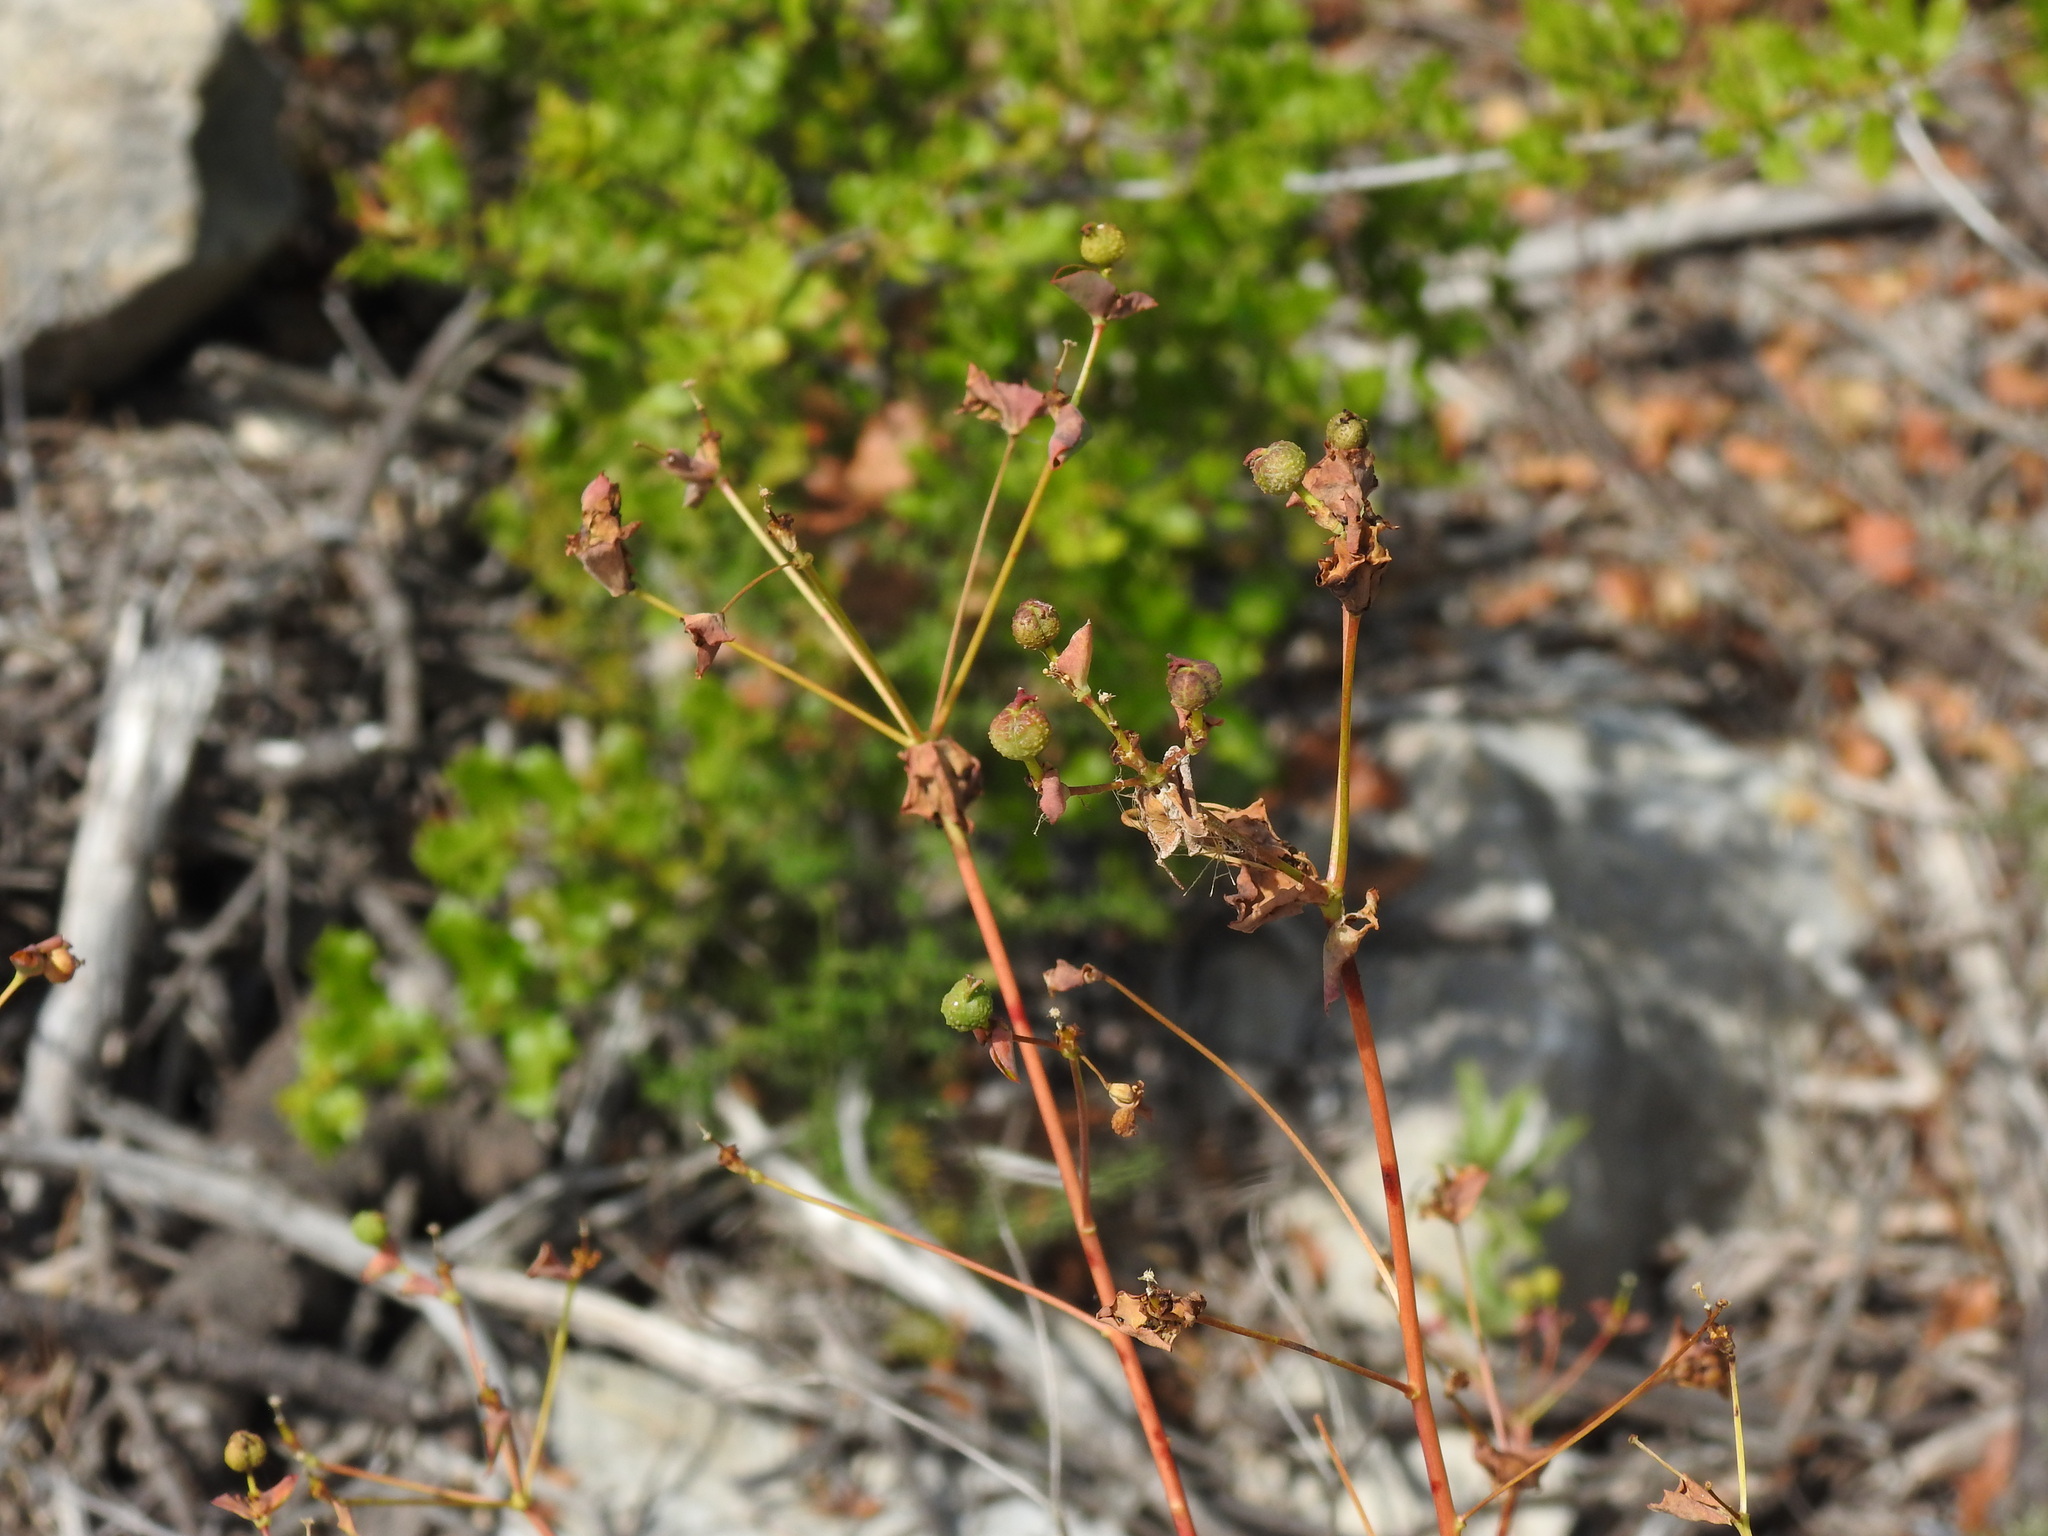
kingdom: Plantae
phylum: Tracheophyta
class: Magnoliopsida
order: Malpighiales
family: Euphorbiaceae
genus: Euphorbia
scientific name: Euphorbia clementei
